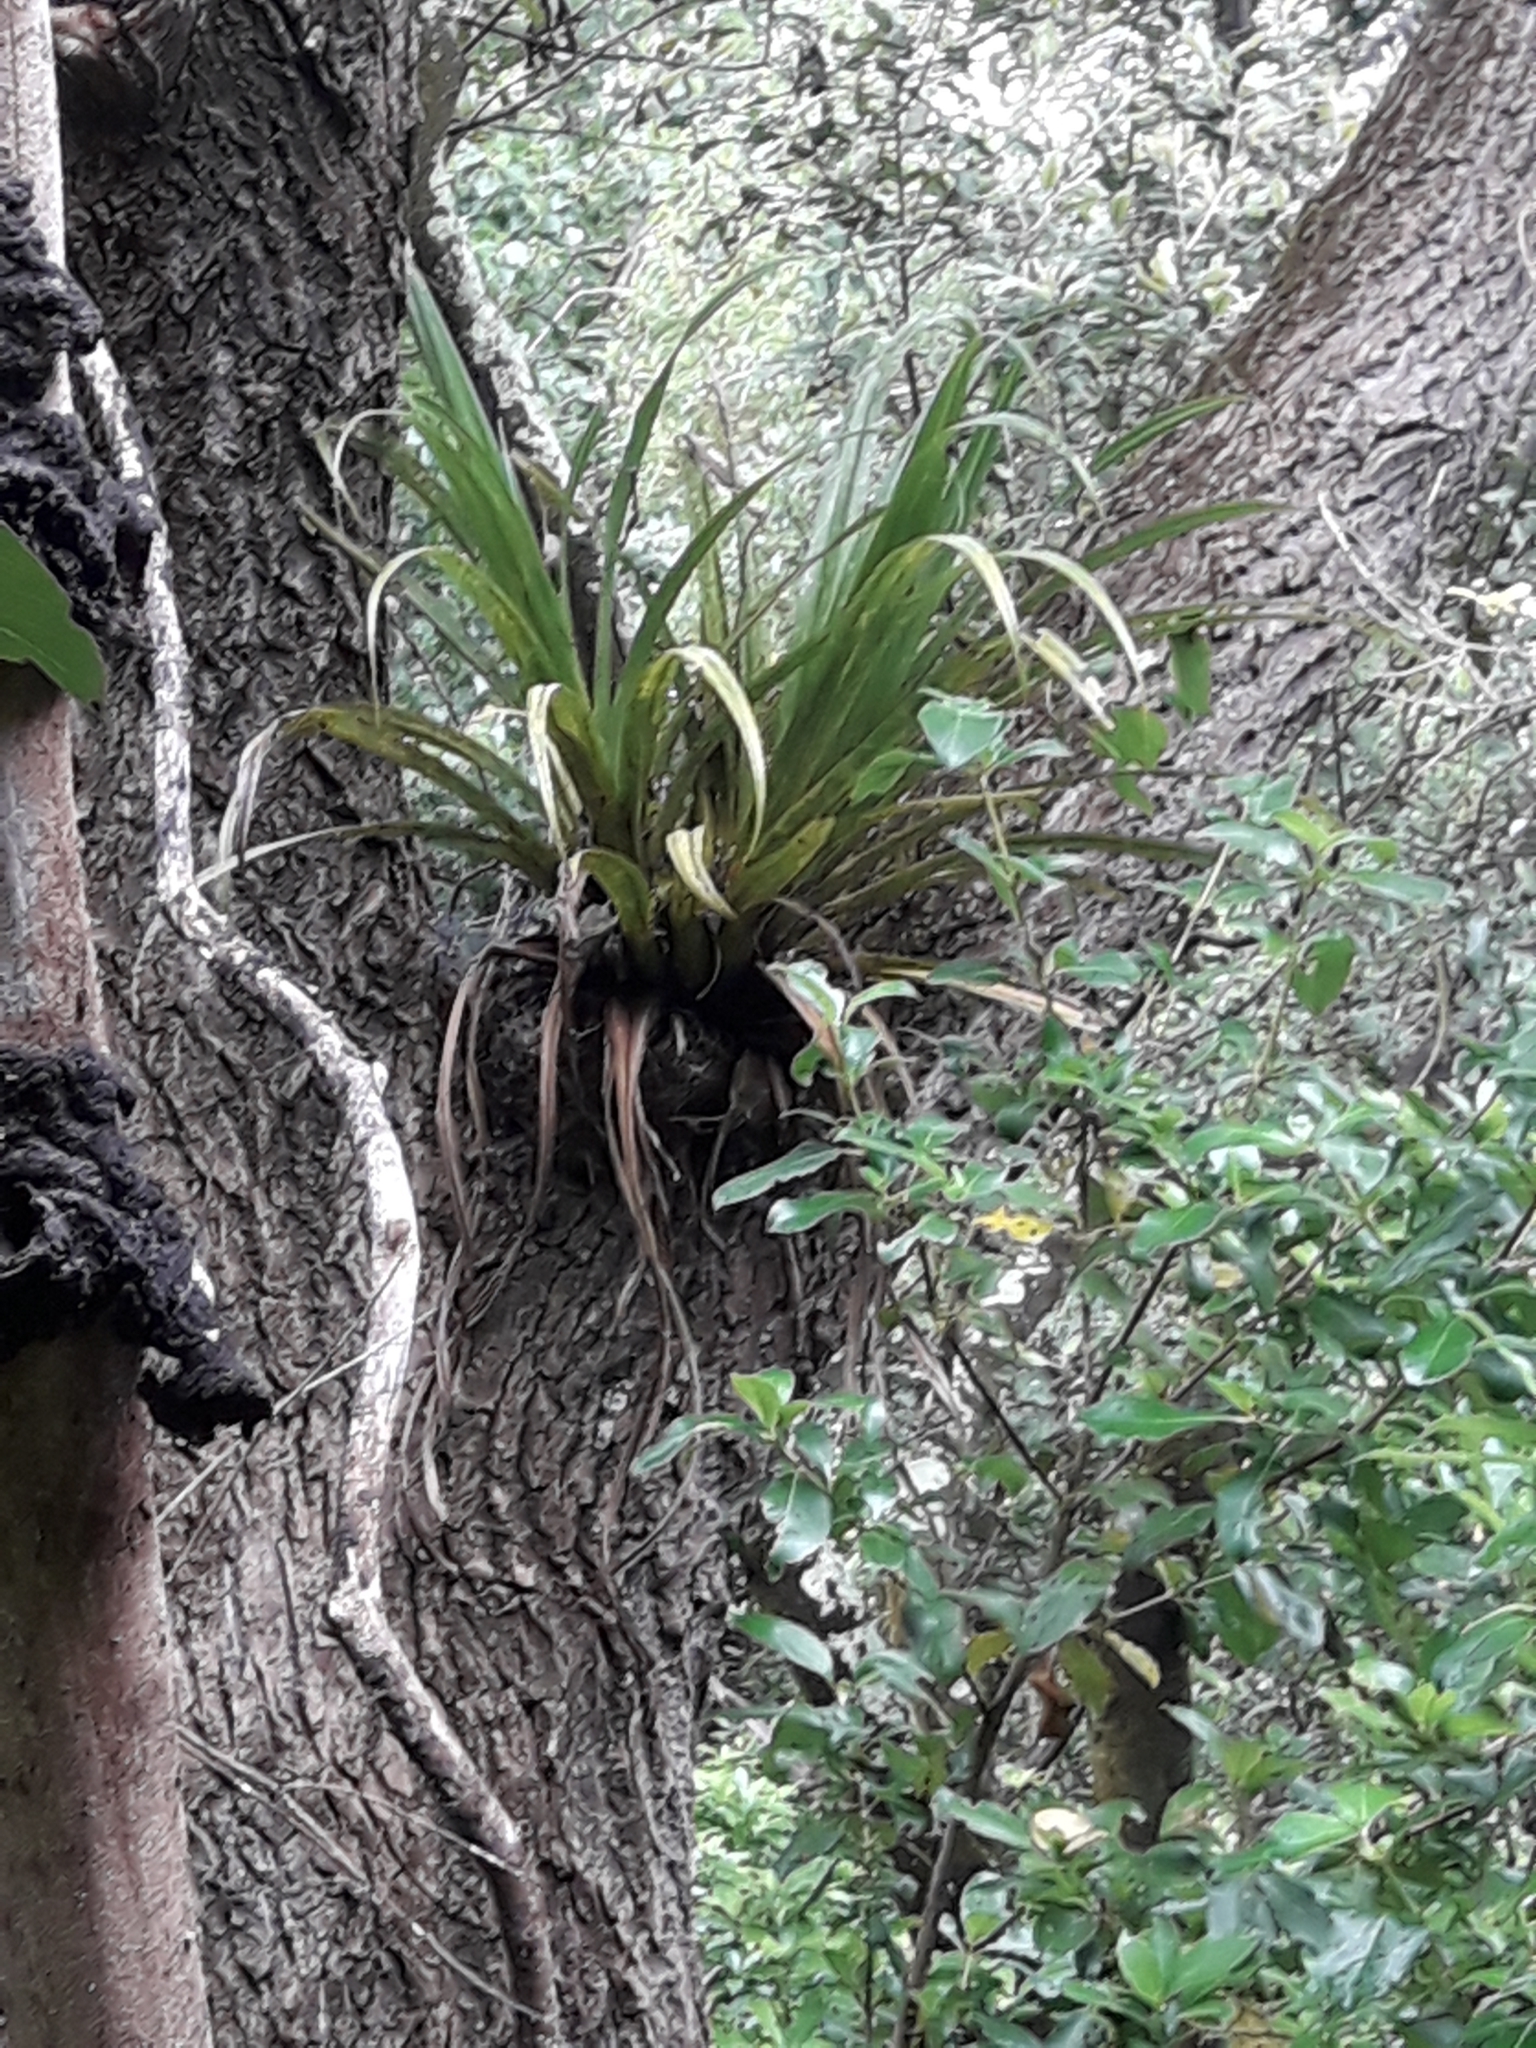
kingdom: Plantae
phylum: Tracheophyta
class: Liliopsida
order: Asparagales
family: Asteliaceae
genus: Astelia
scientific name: Astelia hastata
